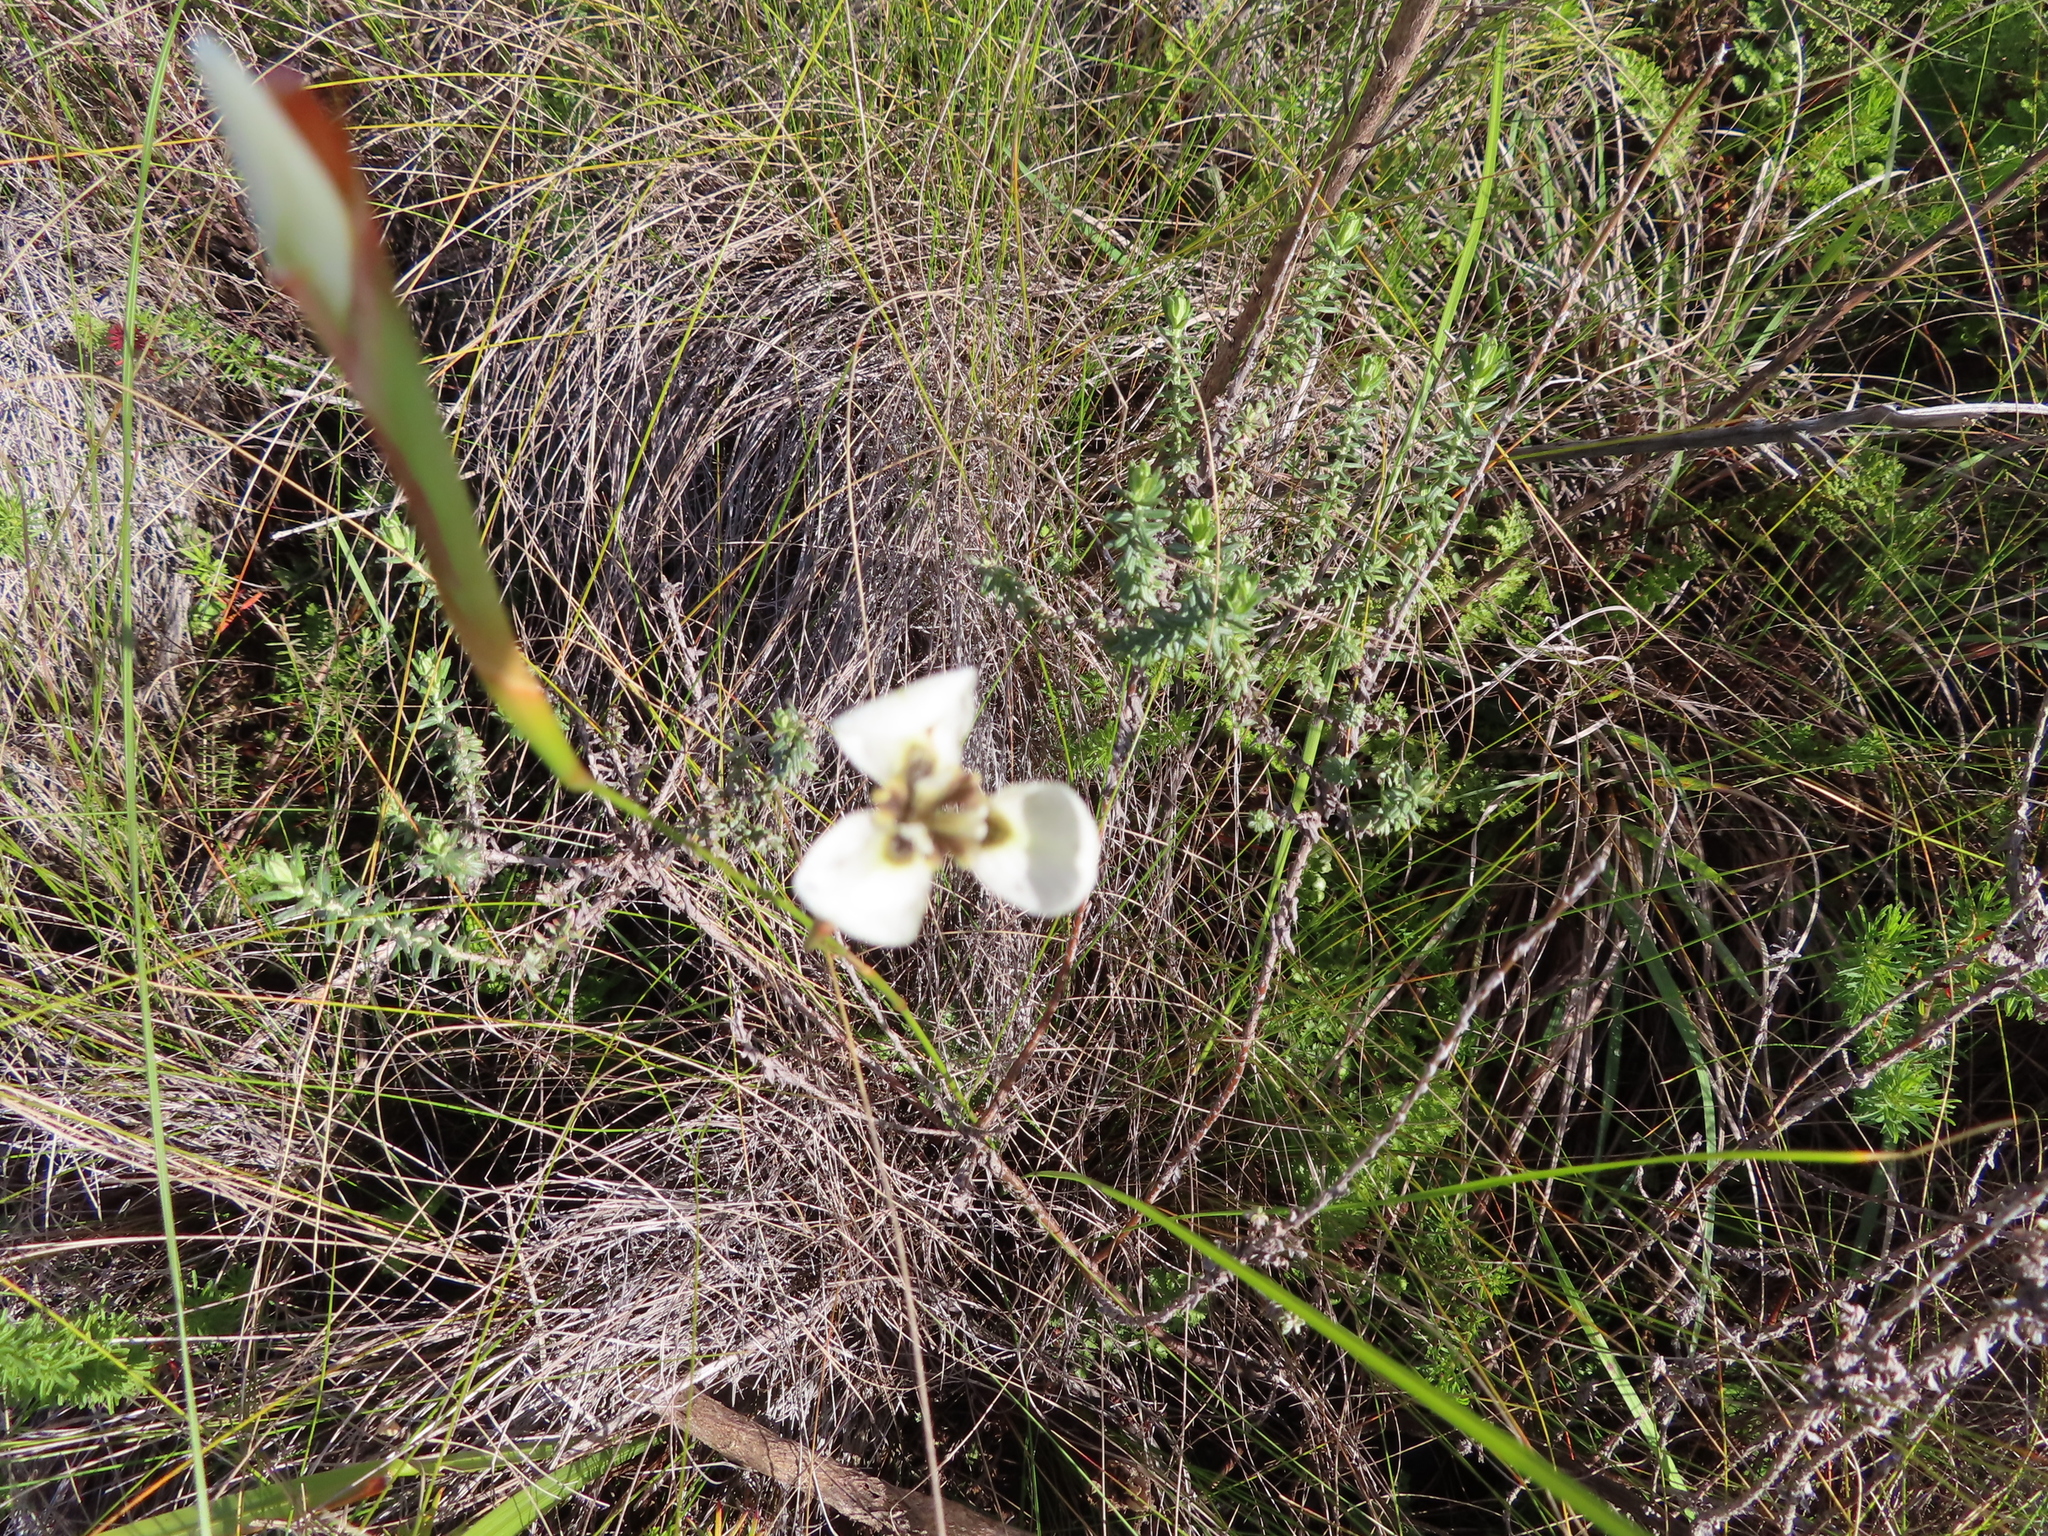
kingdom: Plantae
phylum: Tracheophyta
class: Liliopsida
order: Asparagales
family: Iridaceae
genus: Moraea
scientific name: Moraea tricuspidata
